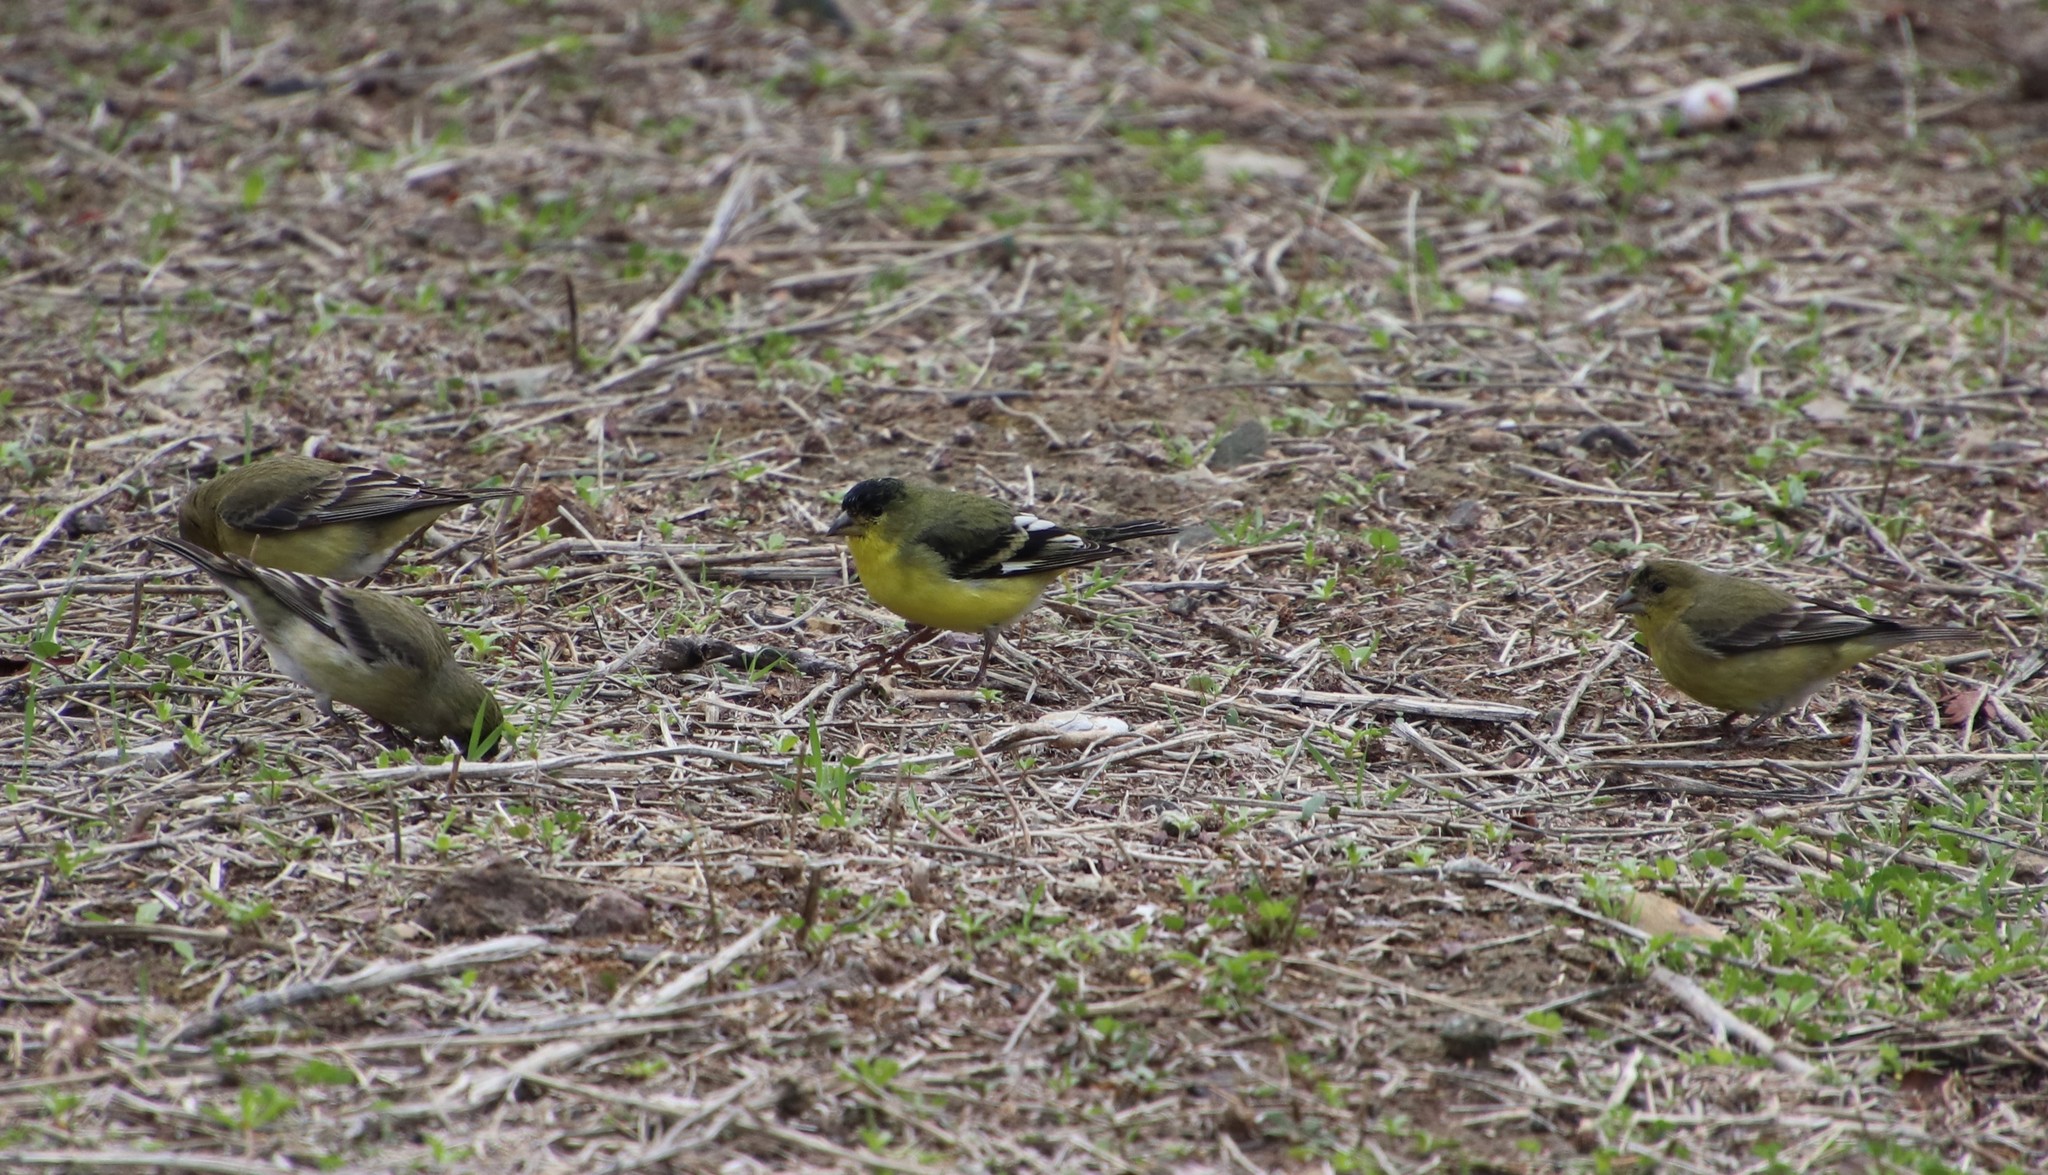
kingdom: Animalia
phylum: Chordata
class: Aves
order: Passeriformes
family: Fringillidae
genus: Spinus
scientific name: Spinus psaltria
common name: Lesser goldfinch
